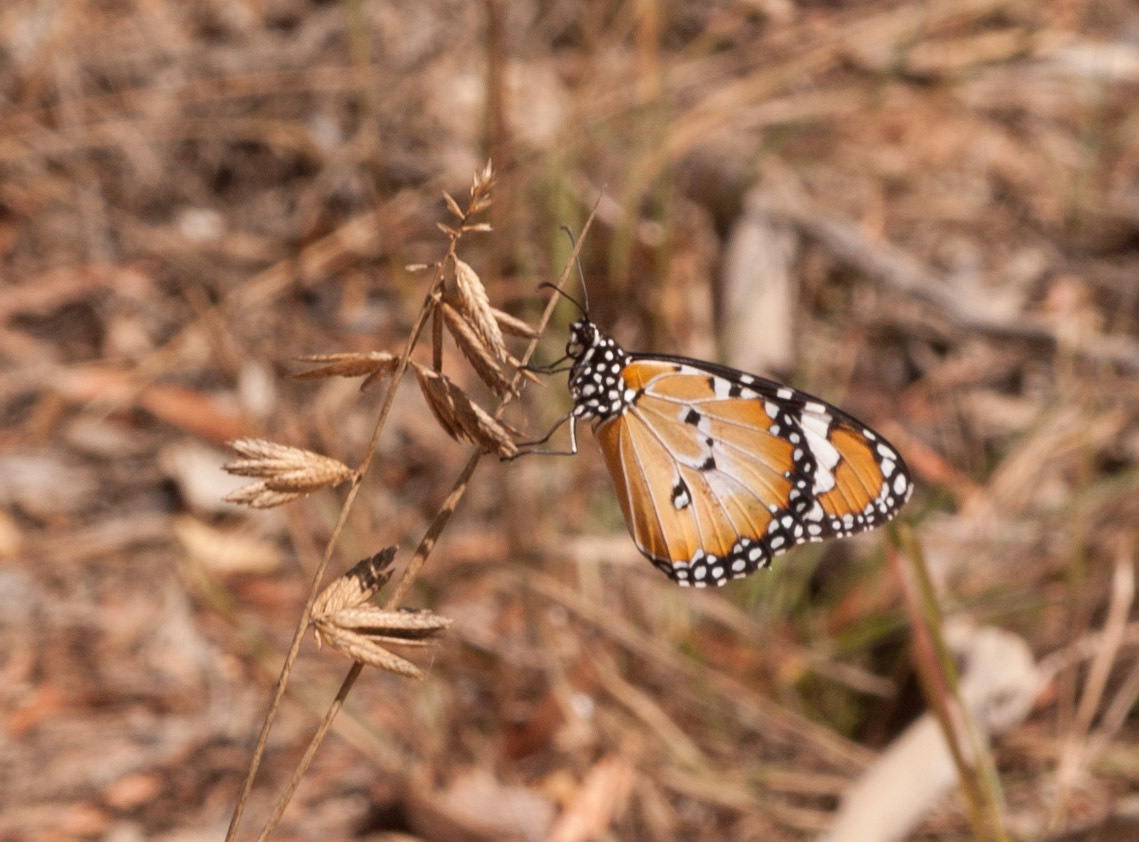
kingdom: Animalia
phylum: Arthropoda
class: Insecta
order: Lepidoptera
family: Nymphalidae
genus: Danaus
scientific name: Danaus chrysippus
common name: Plain tiger
